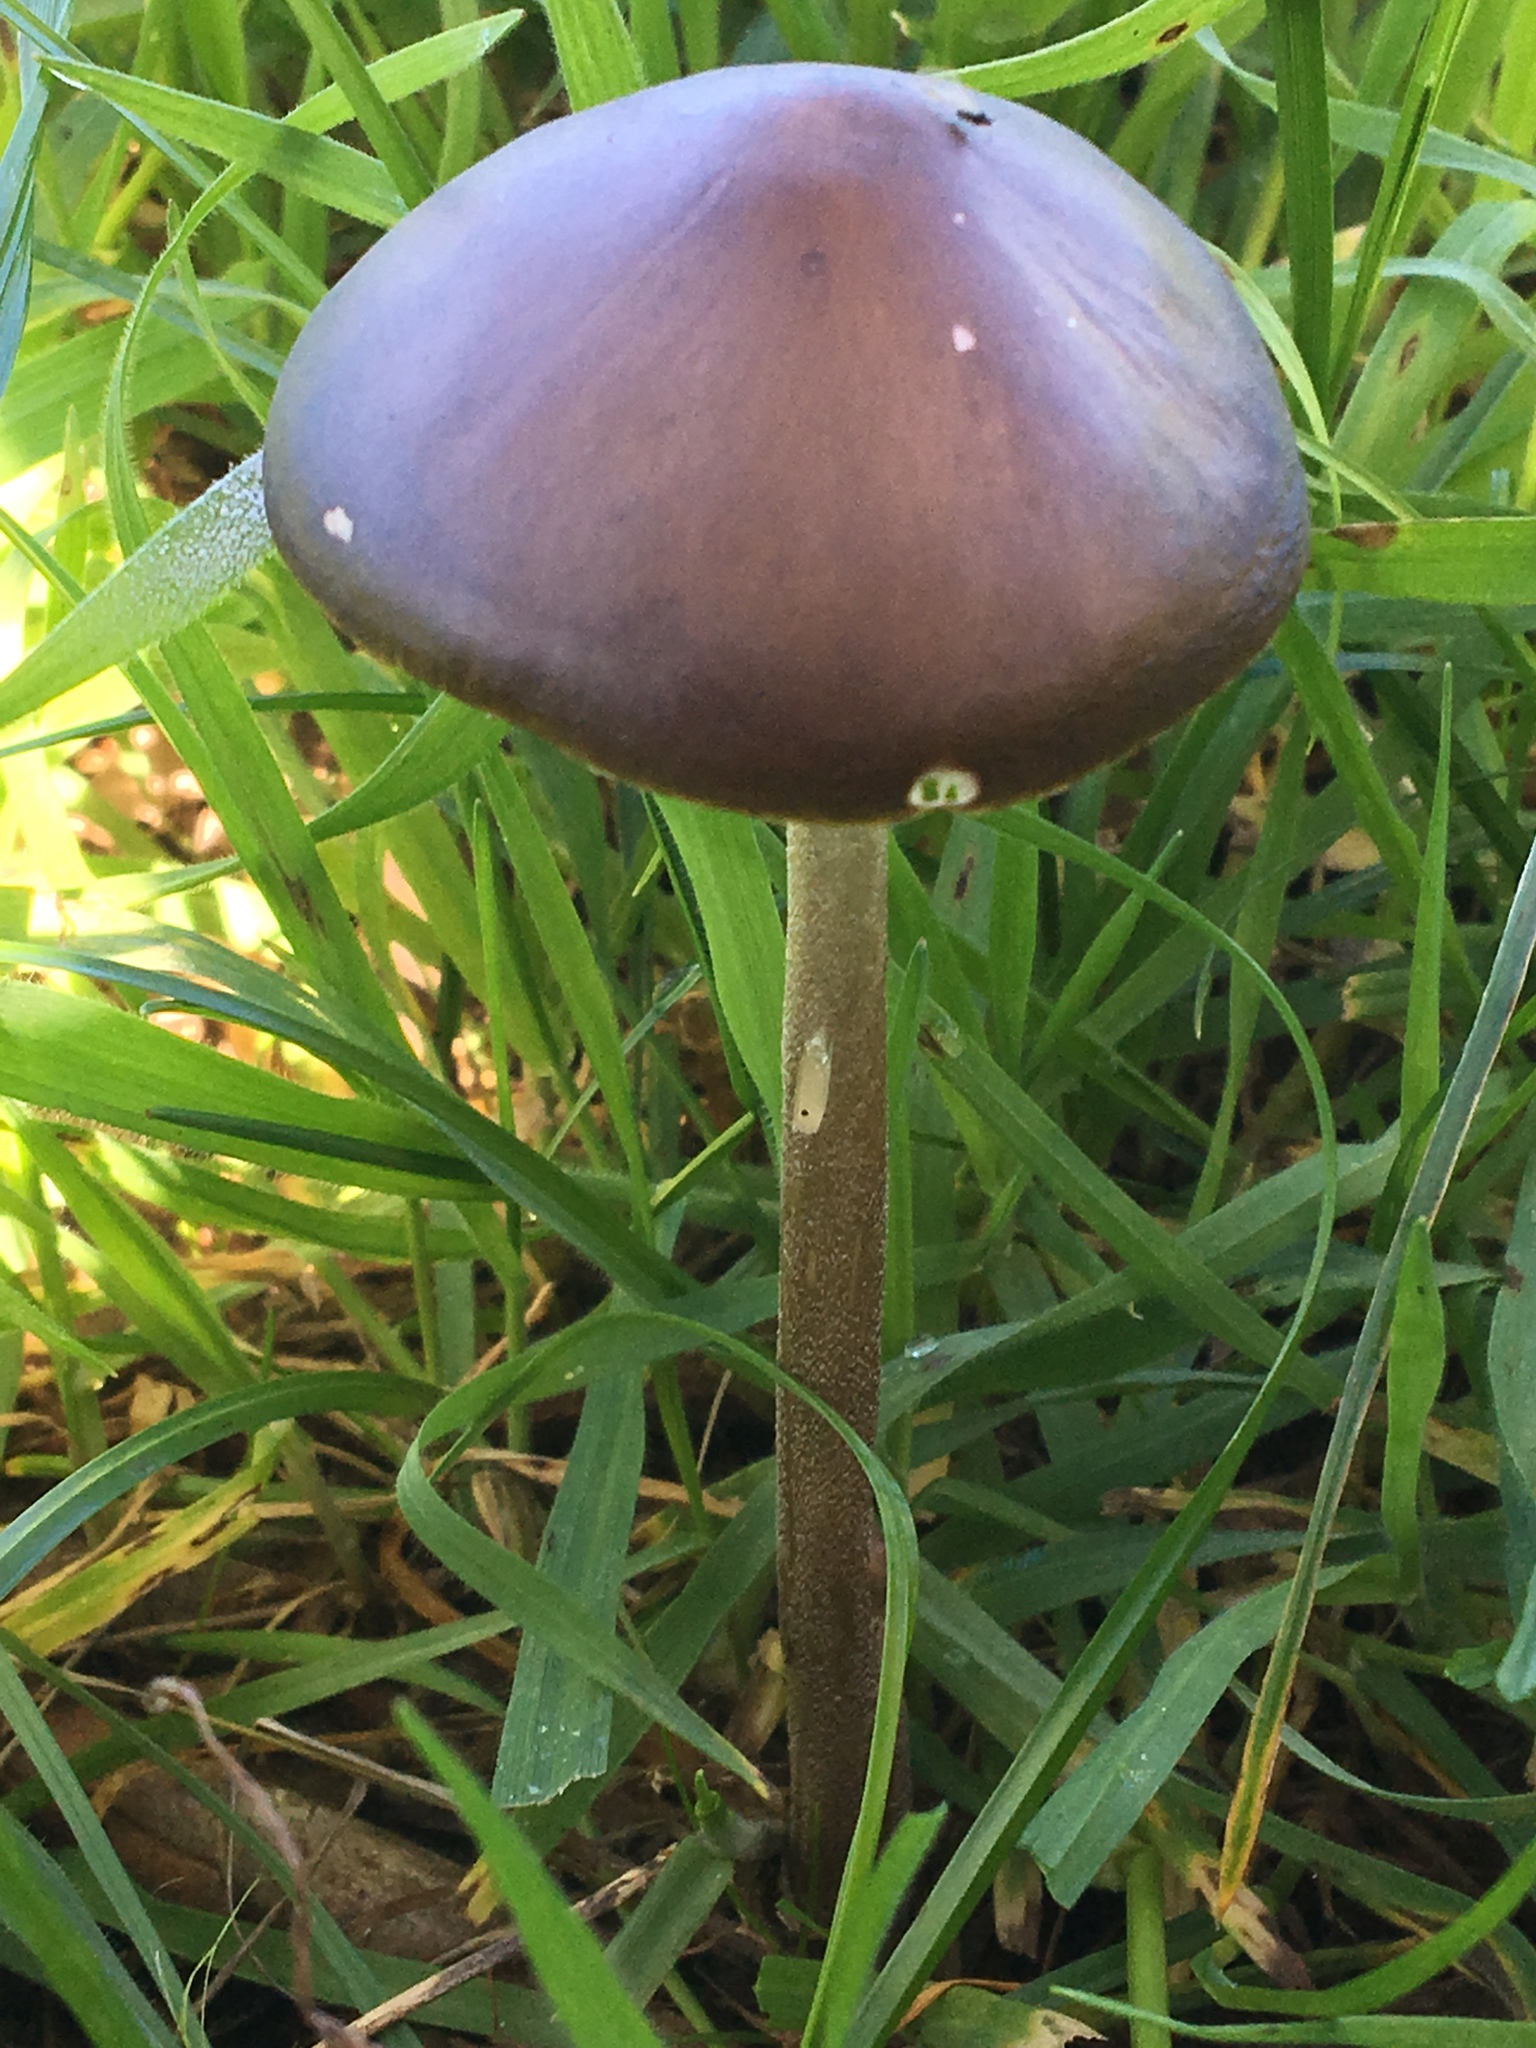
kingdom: Fungi
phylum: Basidiomycota
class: Agaricomycetes
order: Agaricales
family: Physalacriaceae
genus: Hymenopellis
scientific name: Hymenopellis gigaspora
